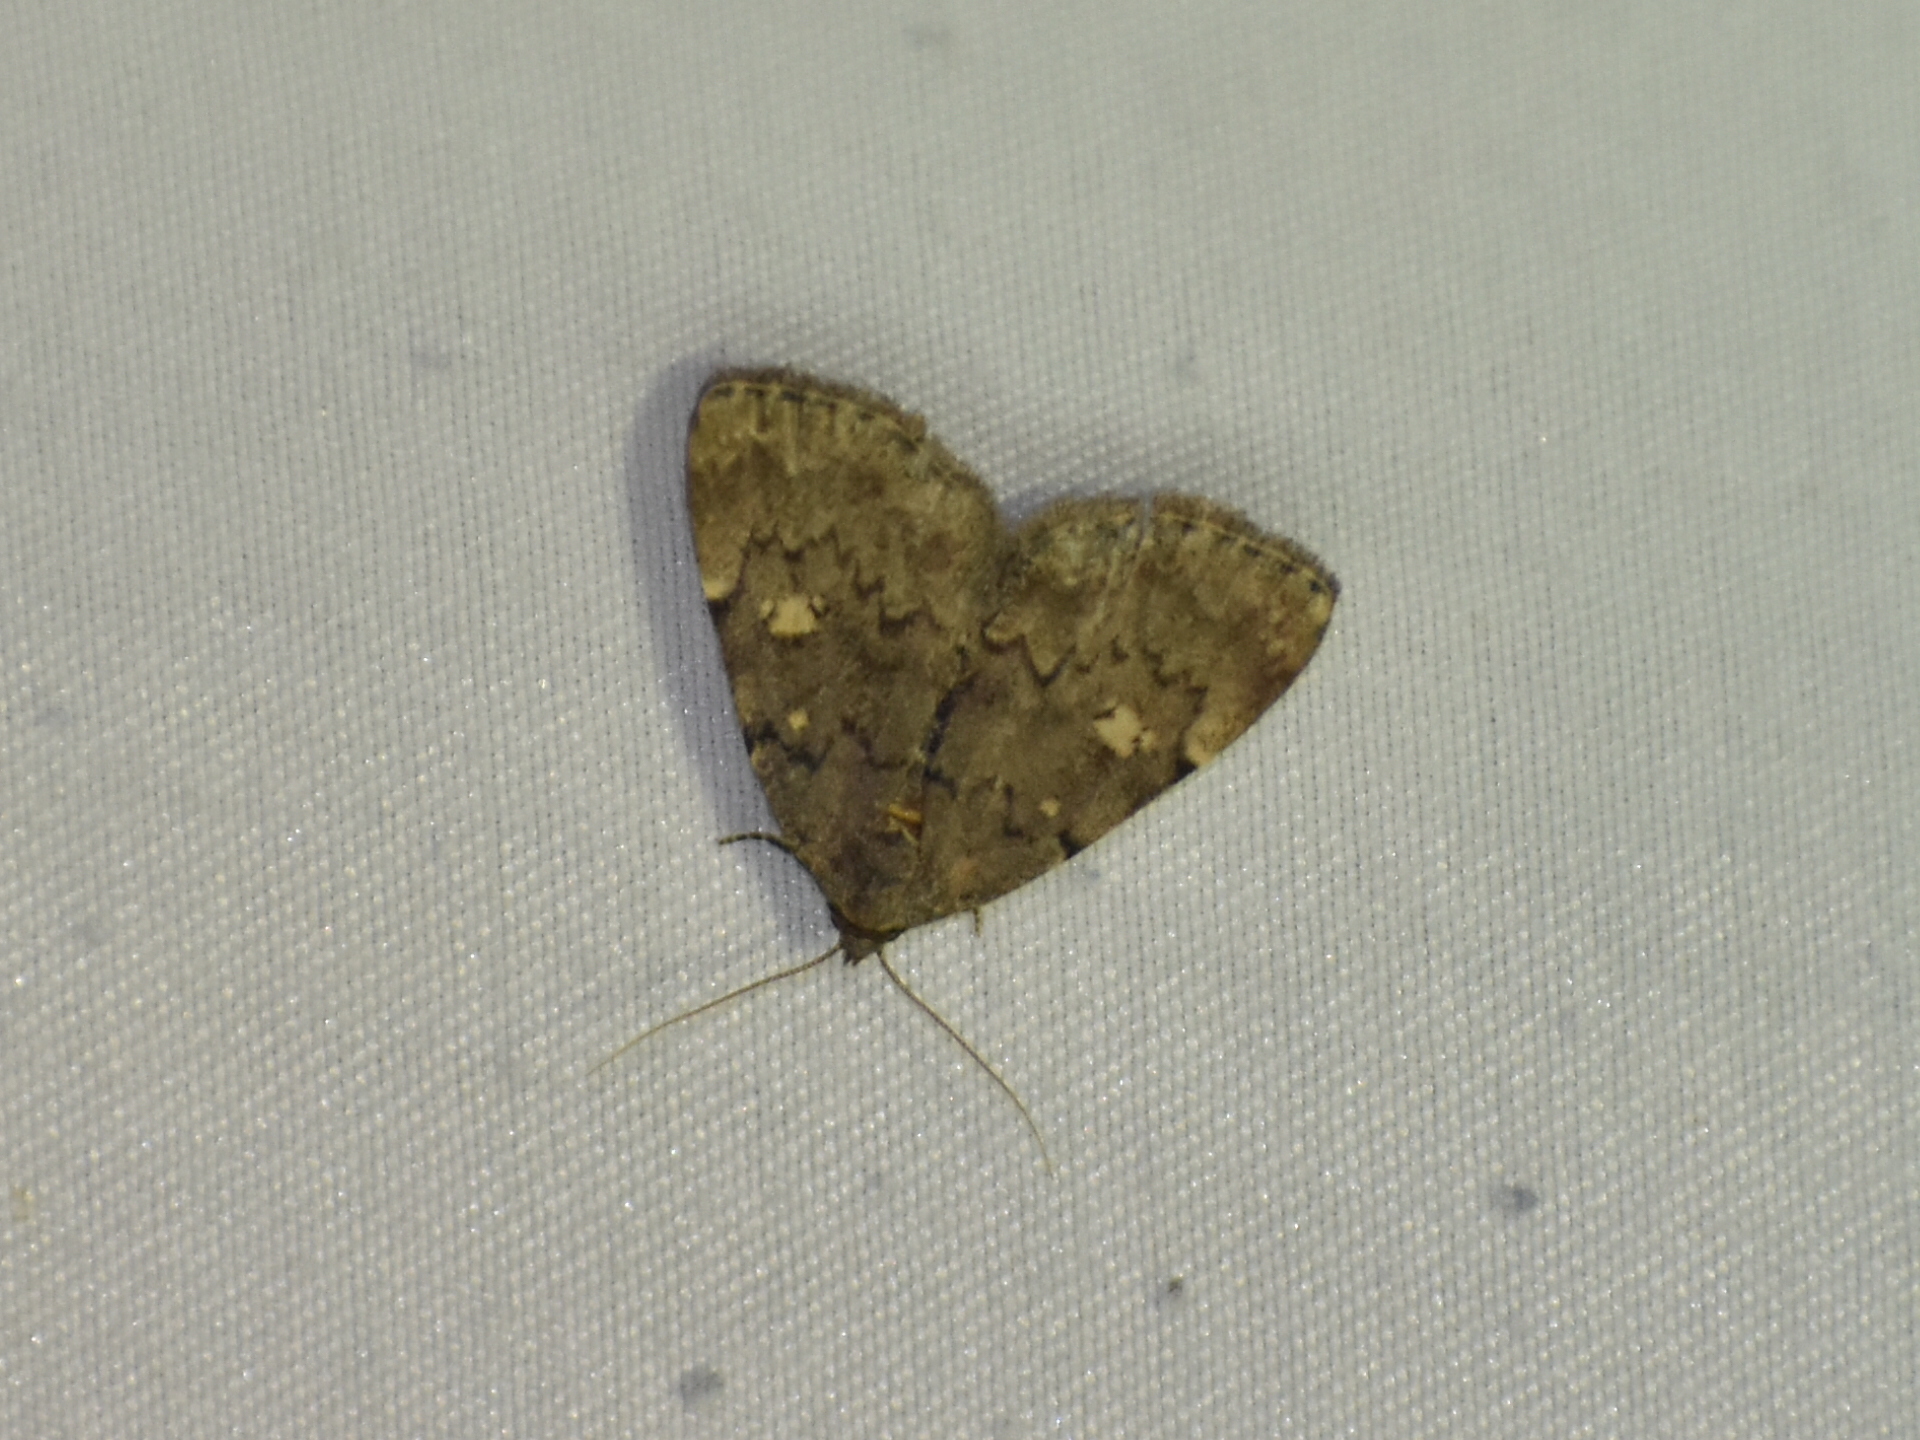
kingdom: Animalia
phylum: Arthropoda
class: Insecta
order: Lepidoptera
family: Erebidae
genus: Idia
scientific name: Idia aemula
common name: Common idia moth
